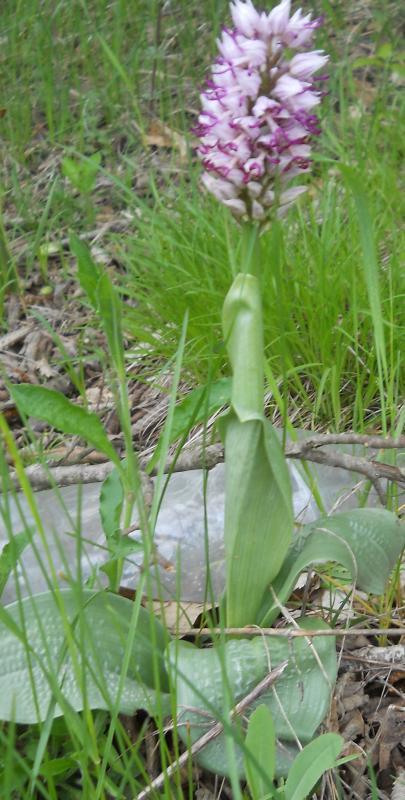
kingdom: Plantae
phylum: Tracheophyta
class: Liliopsida
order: Asparagales
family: Orchidaceae
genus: Orchis
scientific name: Orchis simia
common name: Monkey orchid
